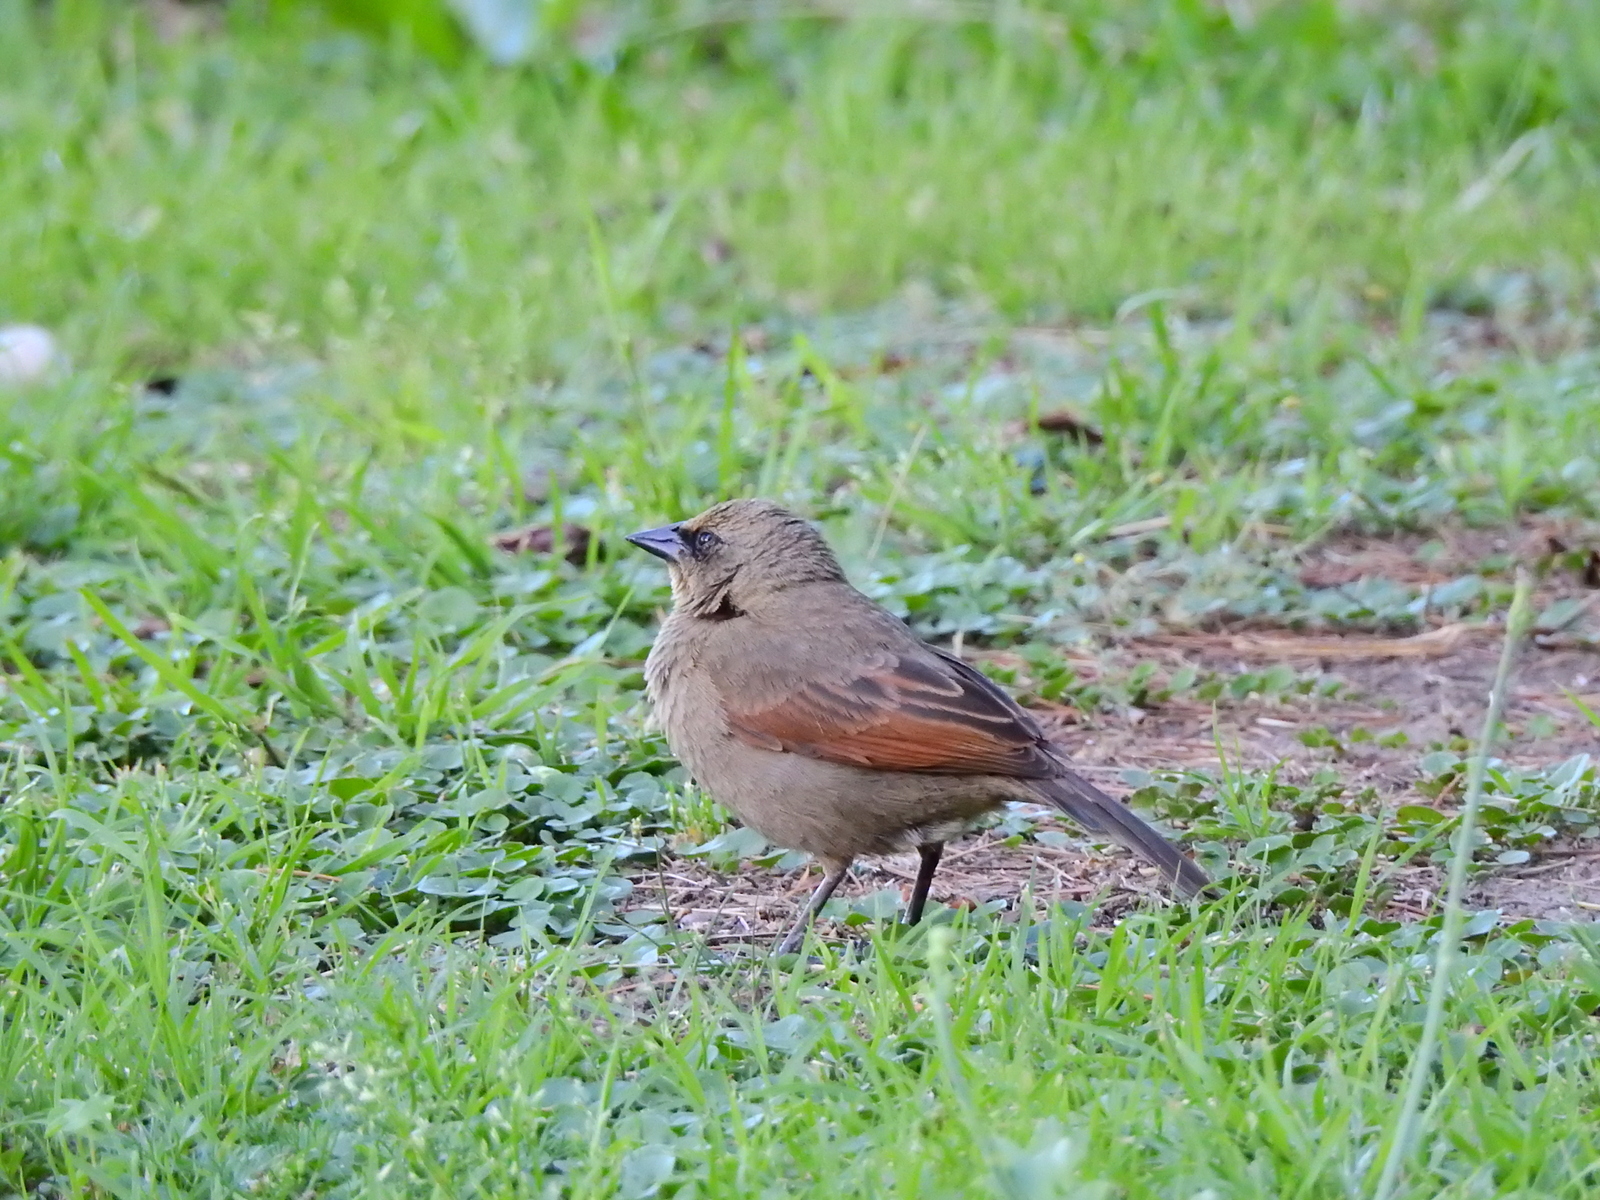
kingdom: Animalia
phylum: Chordata
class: Aves
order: Passeriformes
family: Icteridae
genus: Agelaioides
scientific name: Agelaioides badius
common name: Baywing
